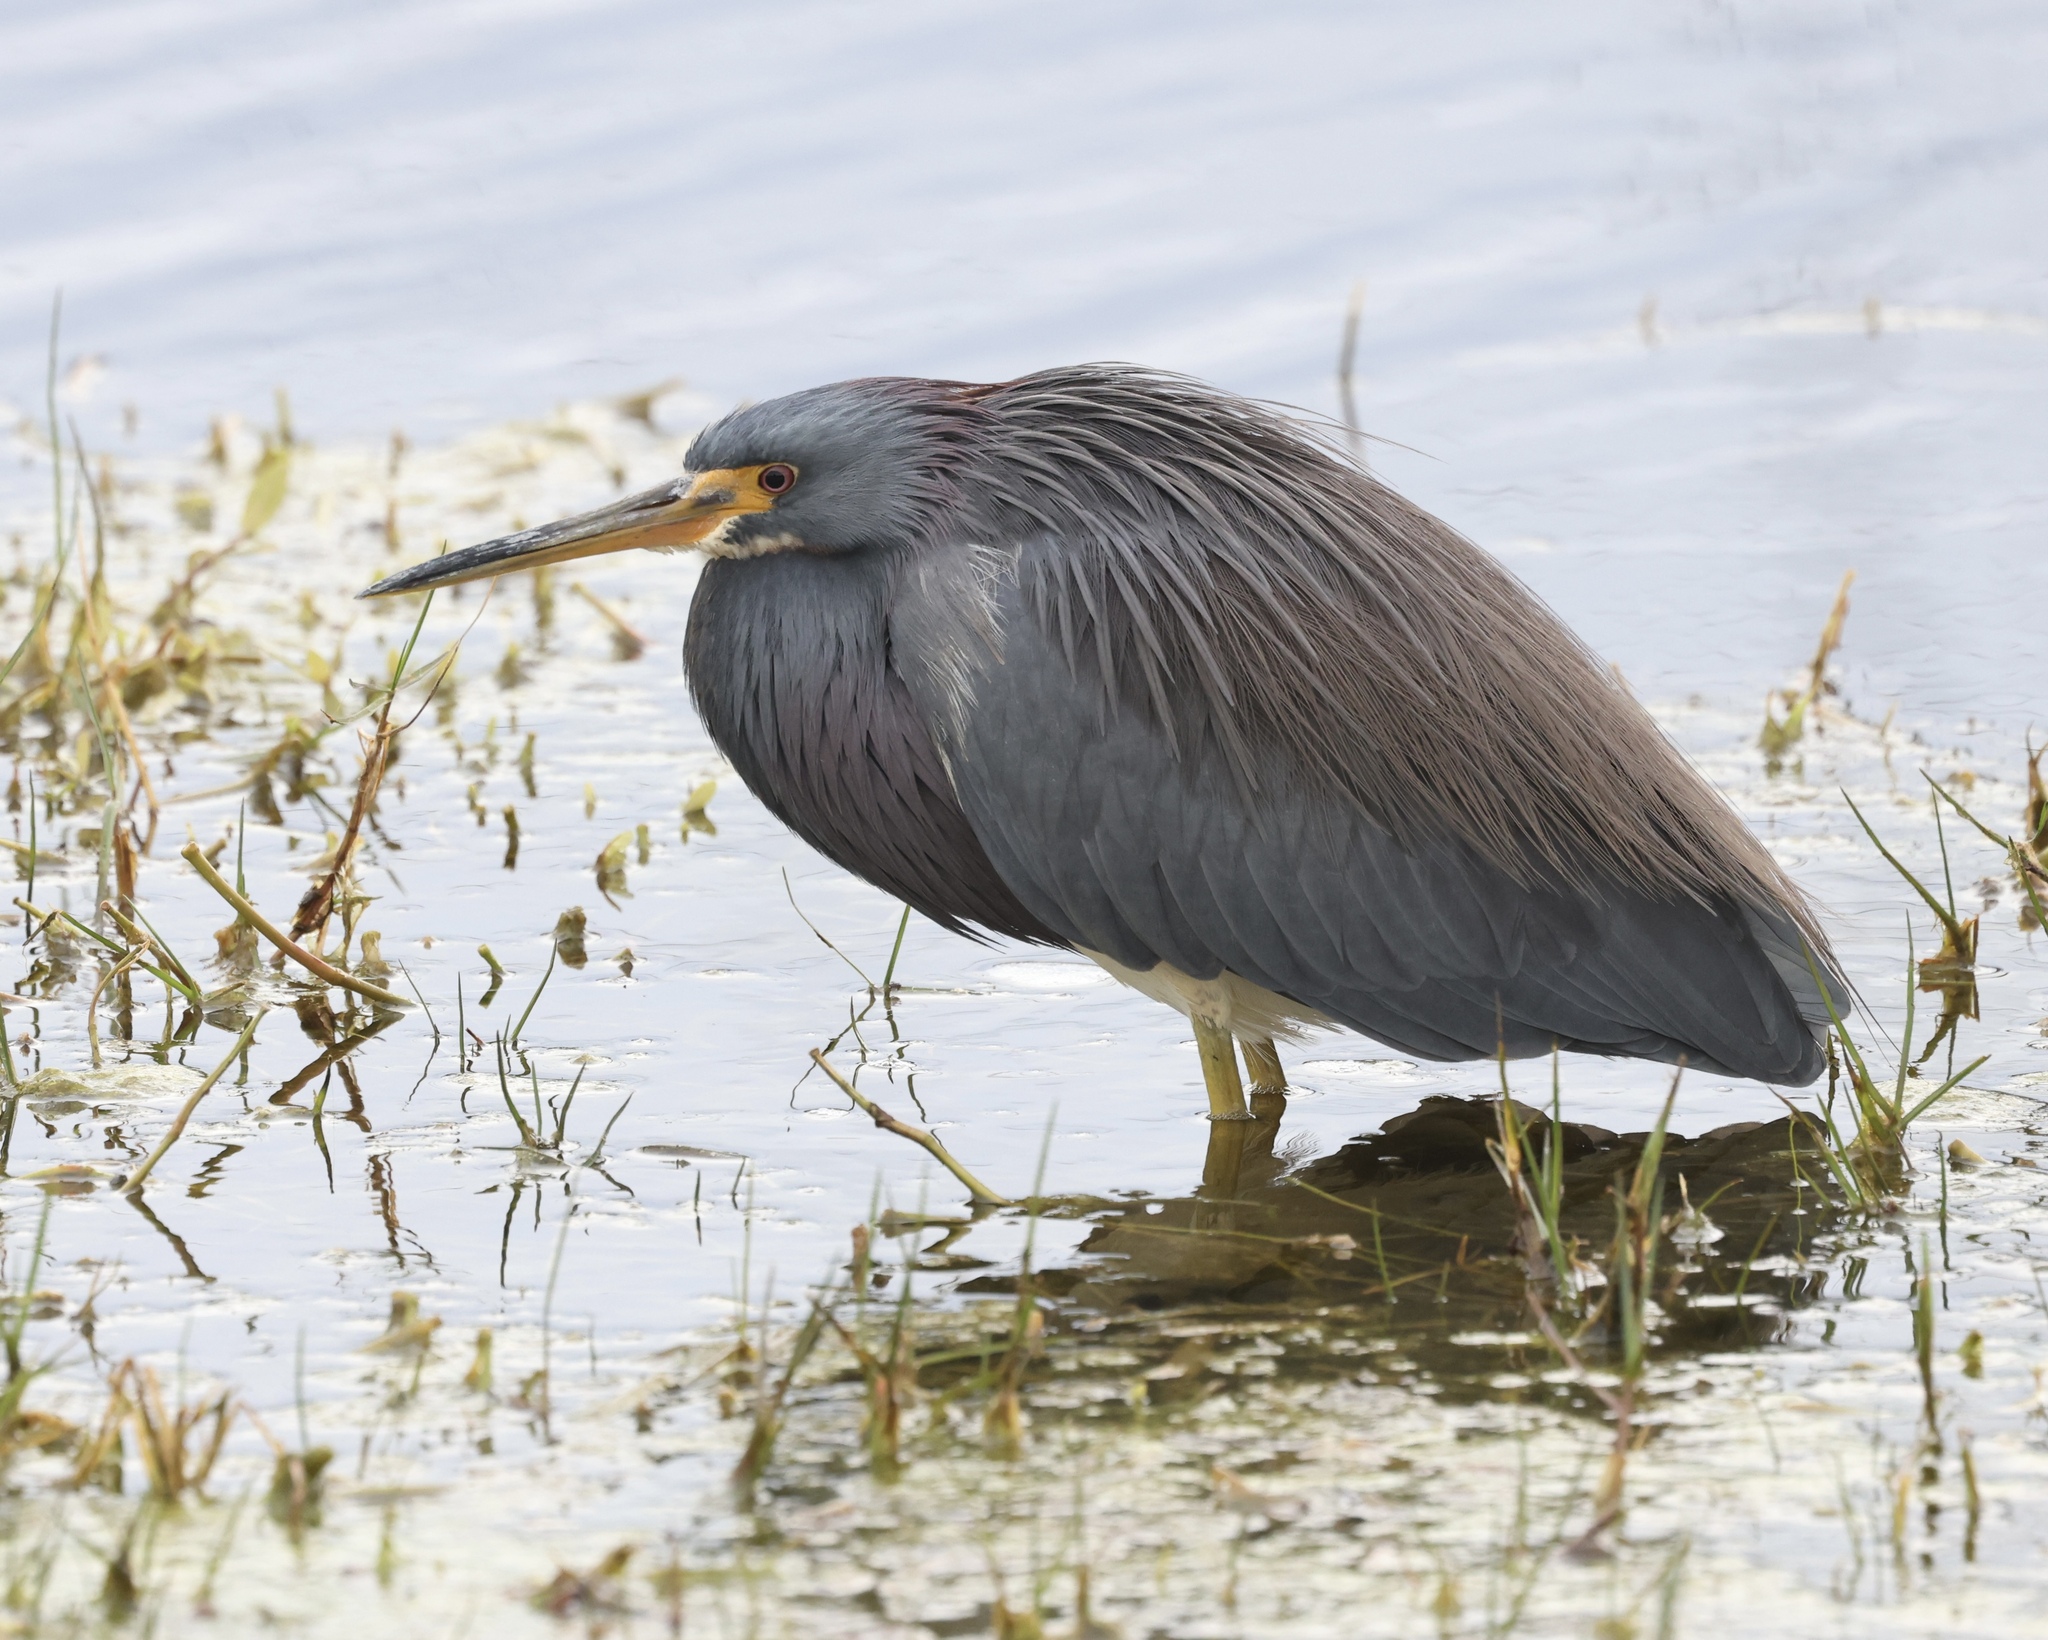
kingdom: Animalia
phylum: Chordata
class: Aves
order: Pelecaniformes
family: Ardeidae
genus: Egretta
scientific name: Egretta tricolor
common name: Tricolored heron
